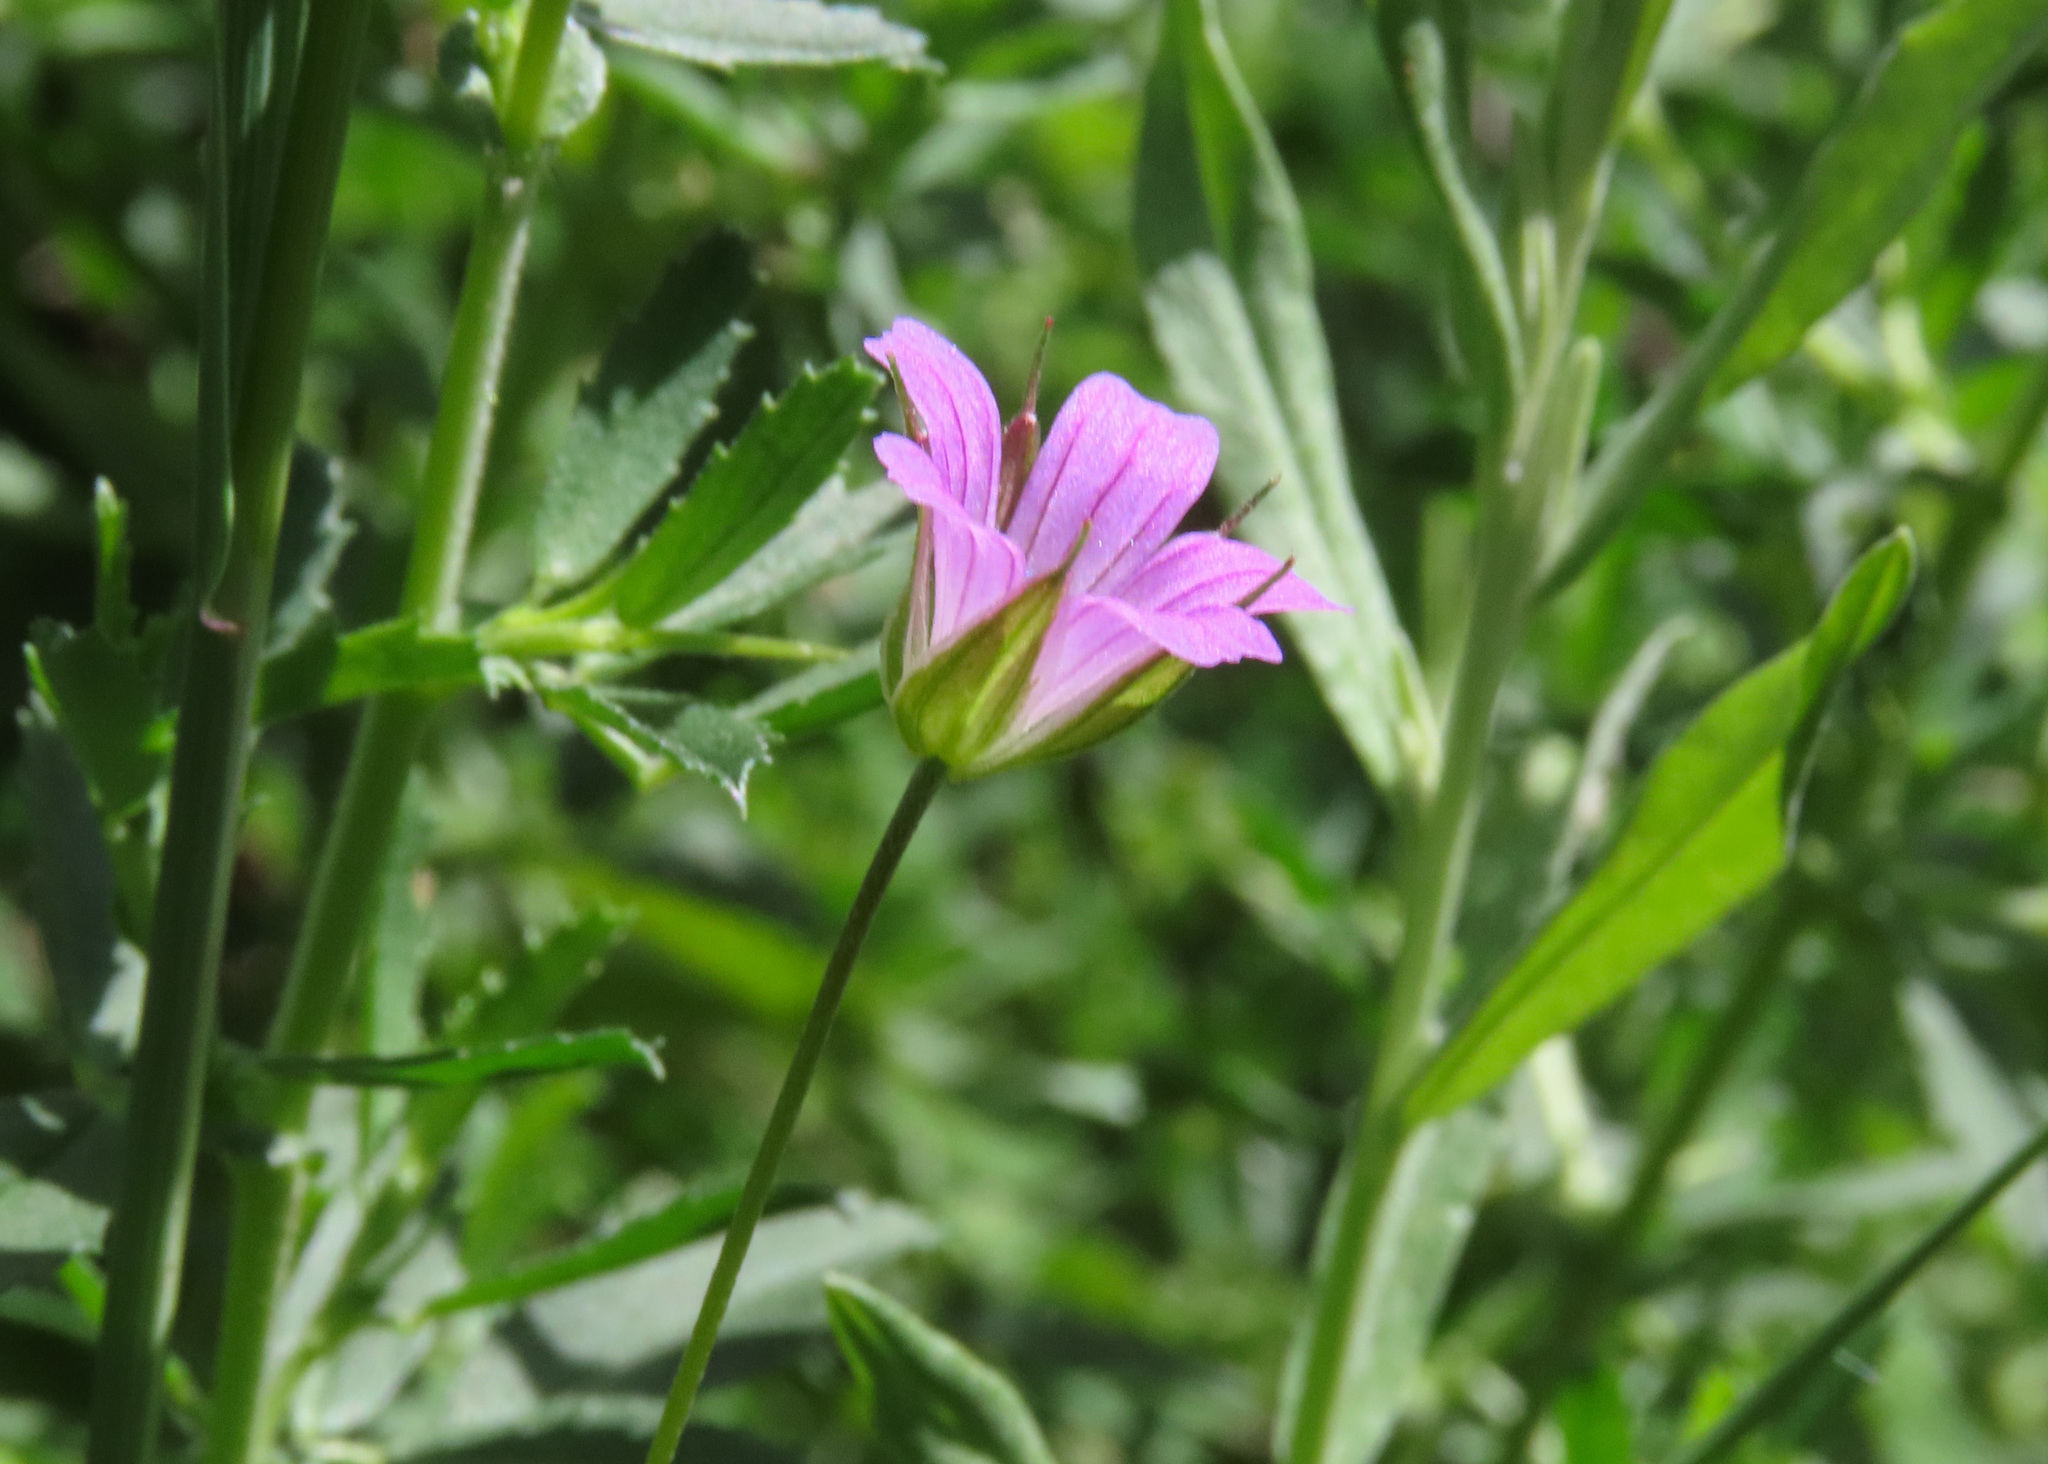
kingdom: Plantae
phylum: Tracheophyta
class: Magnoliopsida
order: Geraniales
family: Geraniaceae
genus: Geranium
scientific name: Geranium columbinum
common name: Long-stalked crane's-bill
